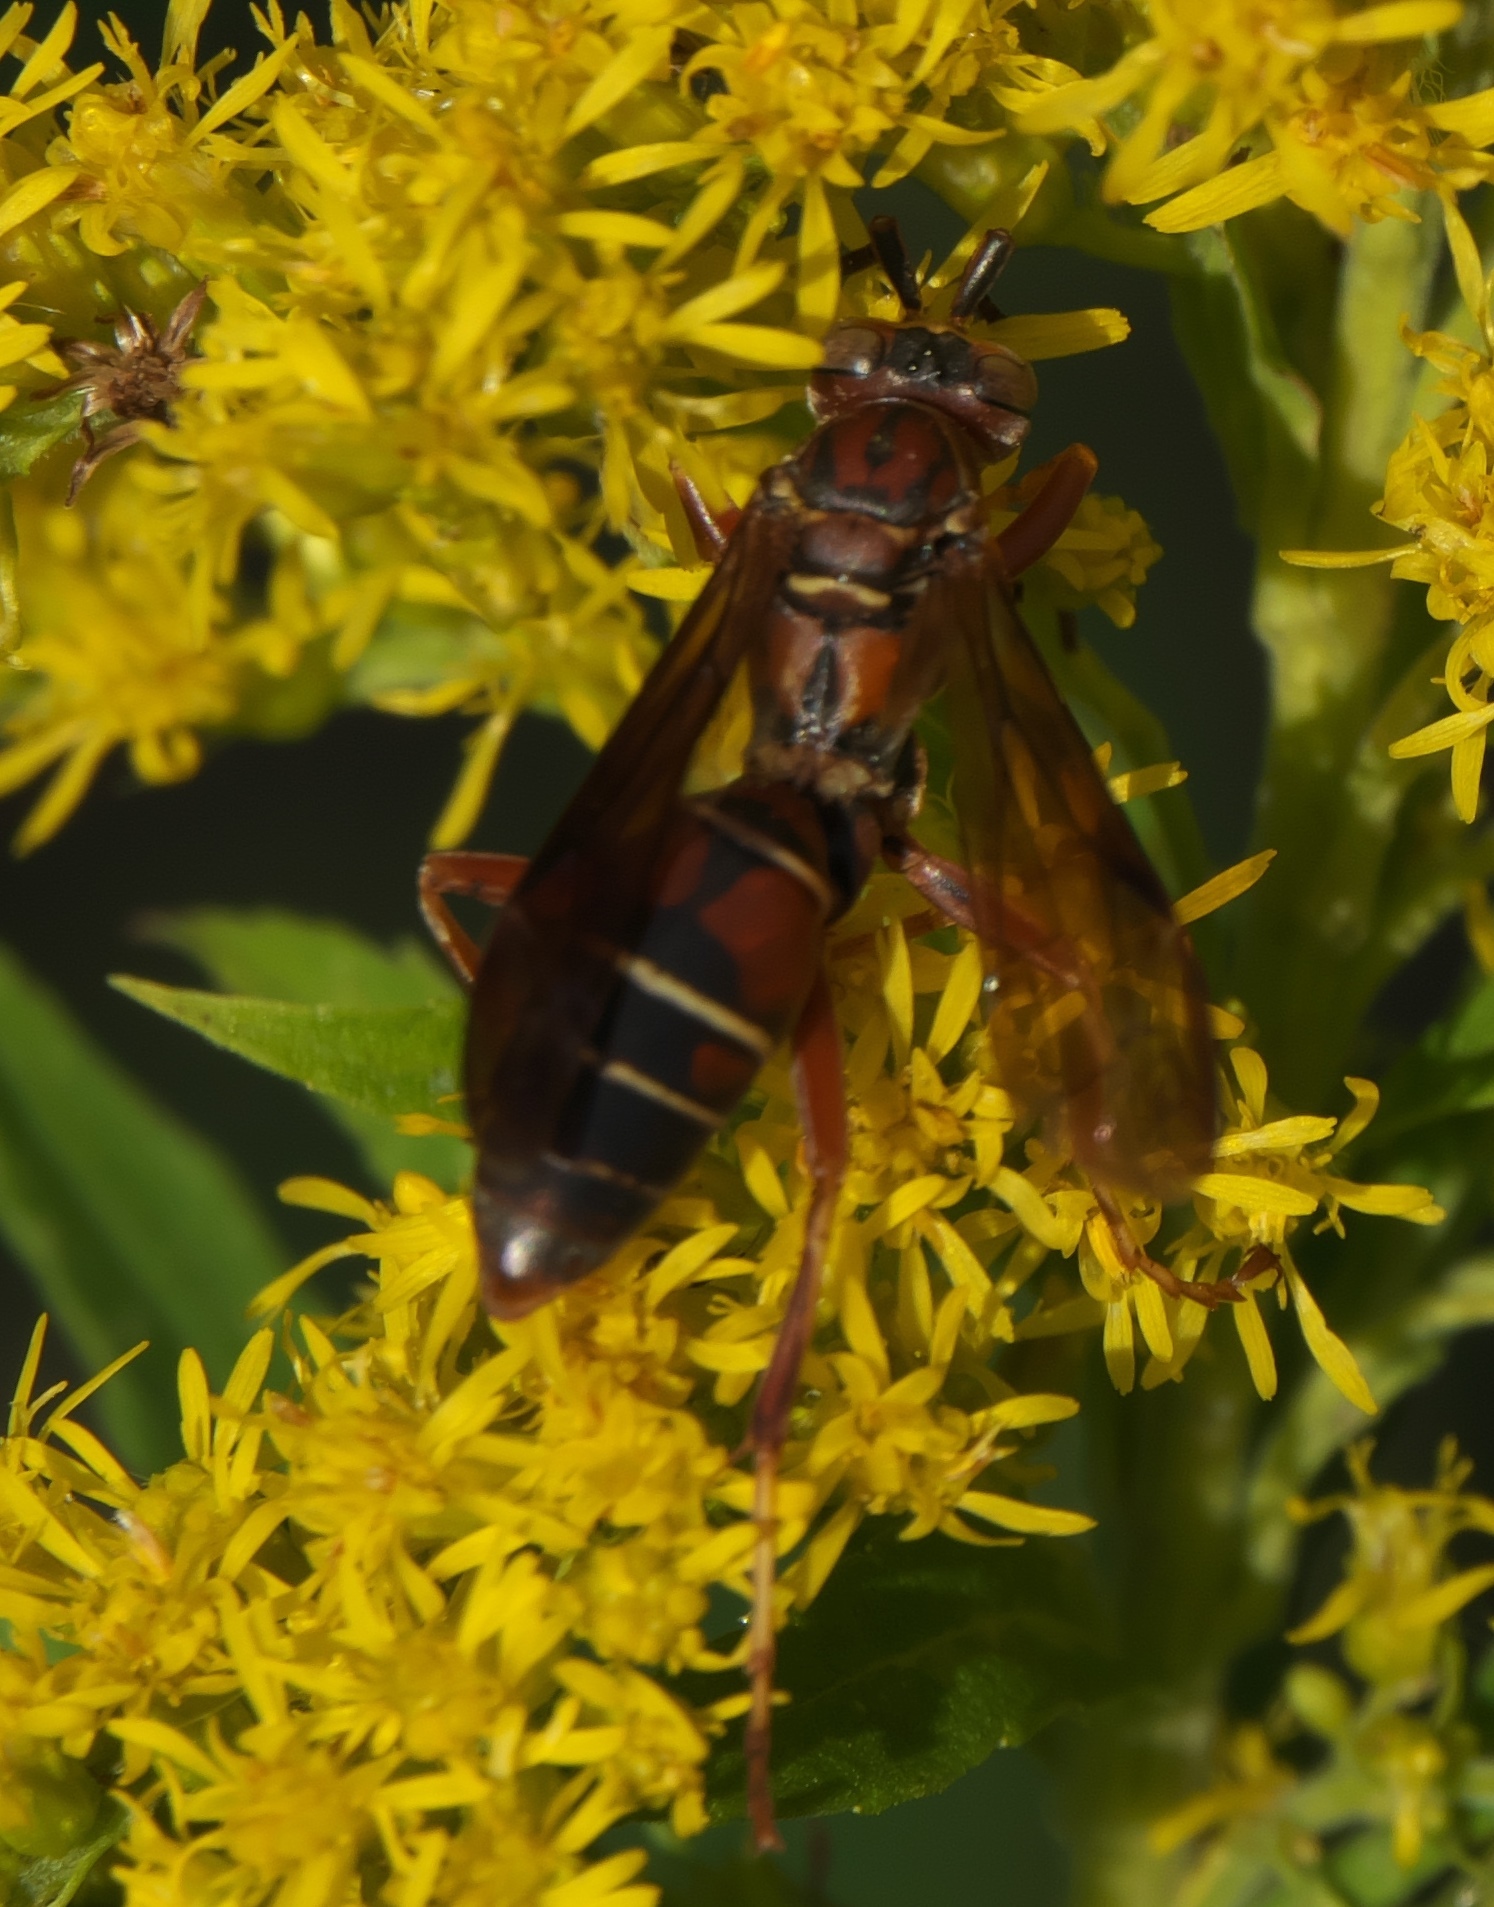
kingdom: Animalia
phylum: Arthropoda
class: Insecta
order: Hymenoptera
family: Eumenidae
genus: Polistes
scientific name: Polistes fuscatus
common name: Dark paper wasp
